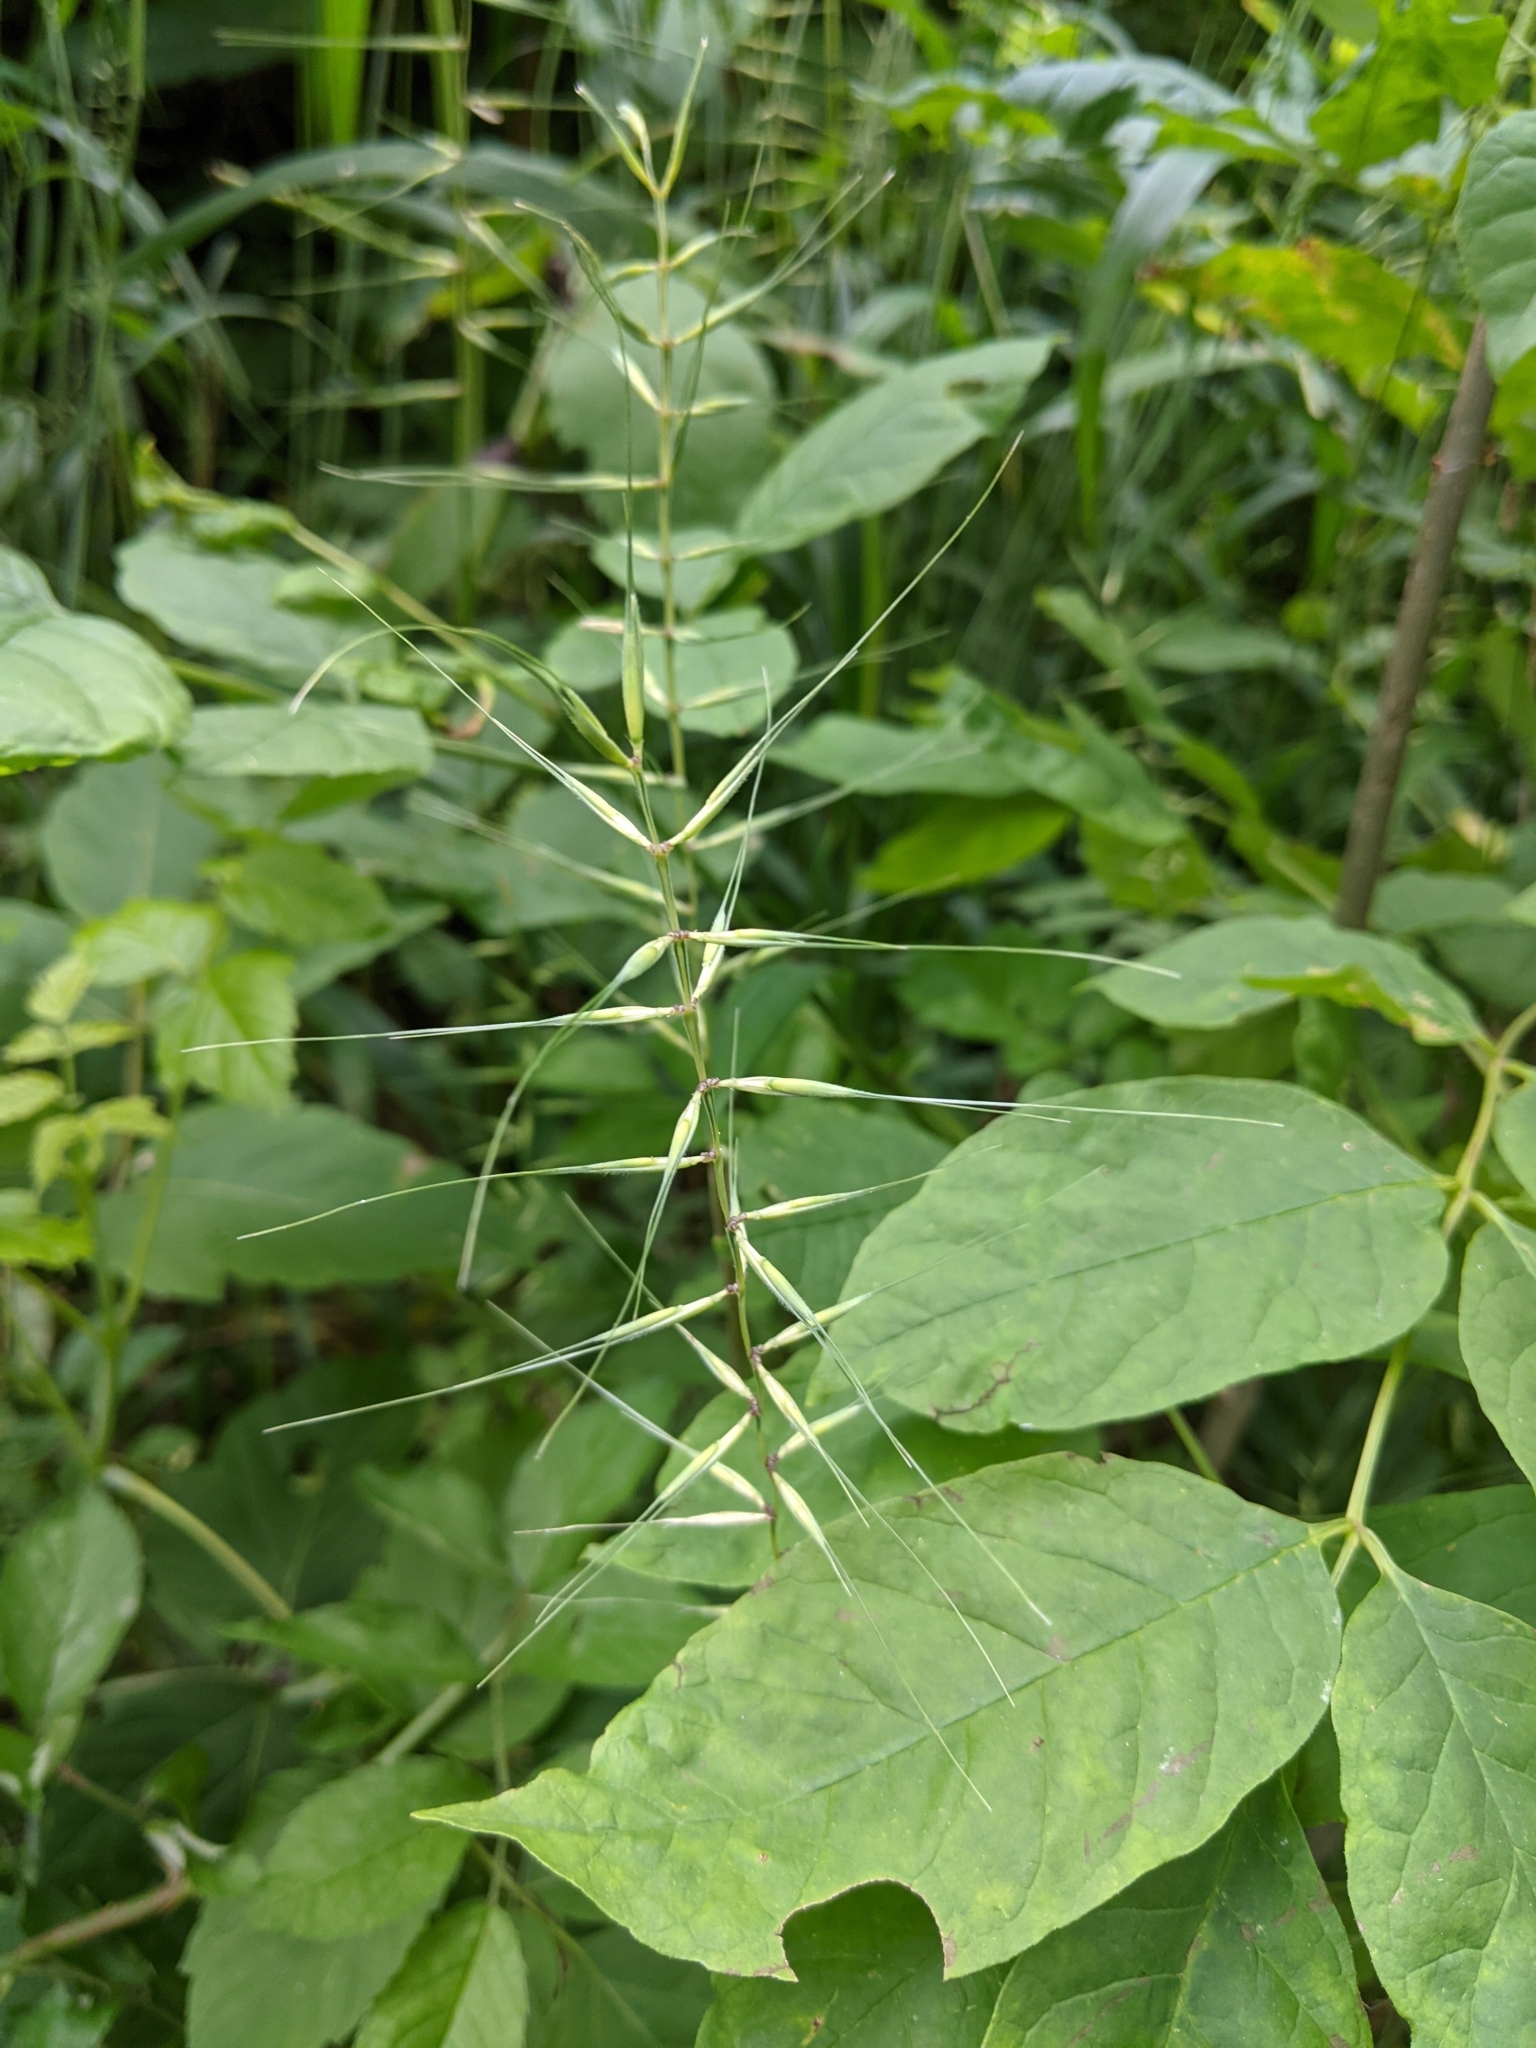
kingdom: Plantae
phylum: Tracheophyta
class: Liliopsida
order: Poales
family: Poaceae
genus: Elymus
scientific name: Elymus hystrix
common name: Bottlebrush grass
